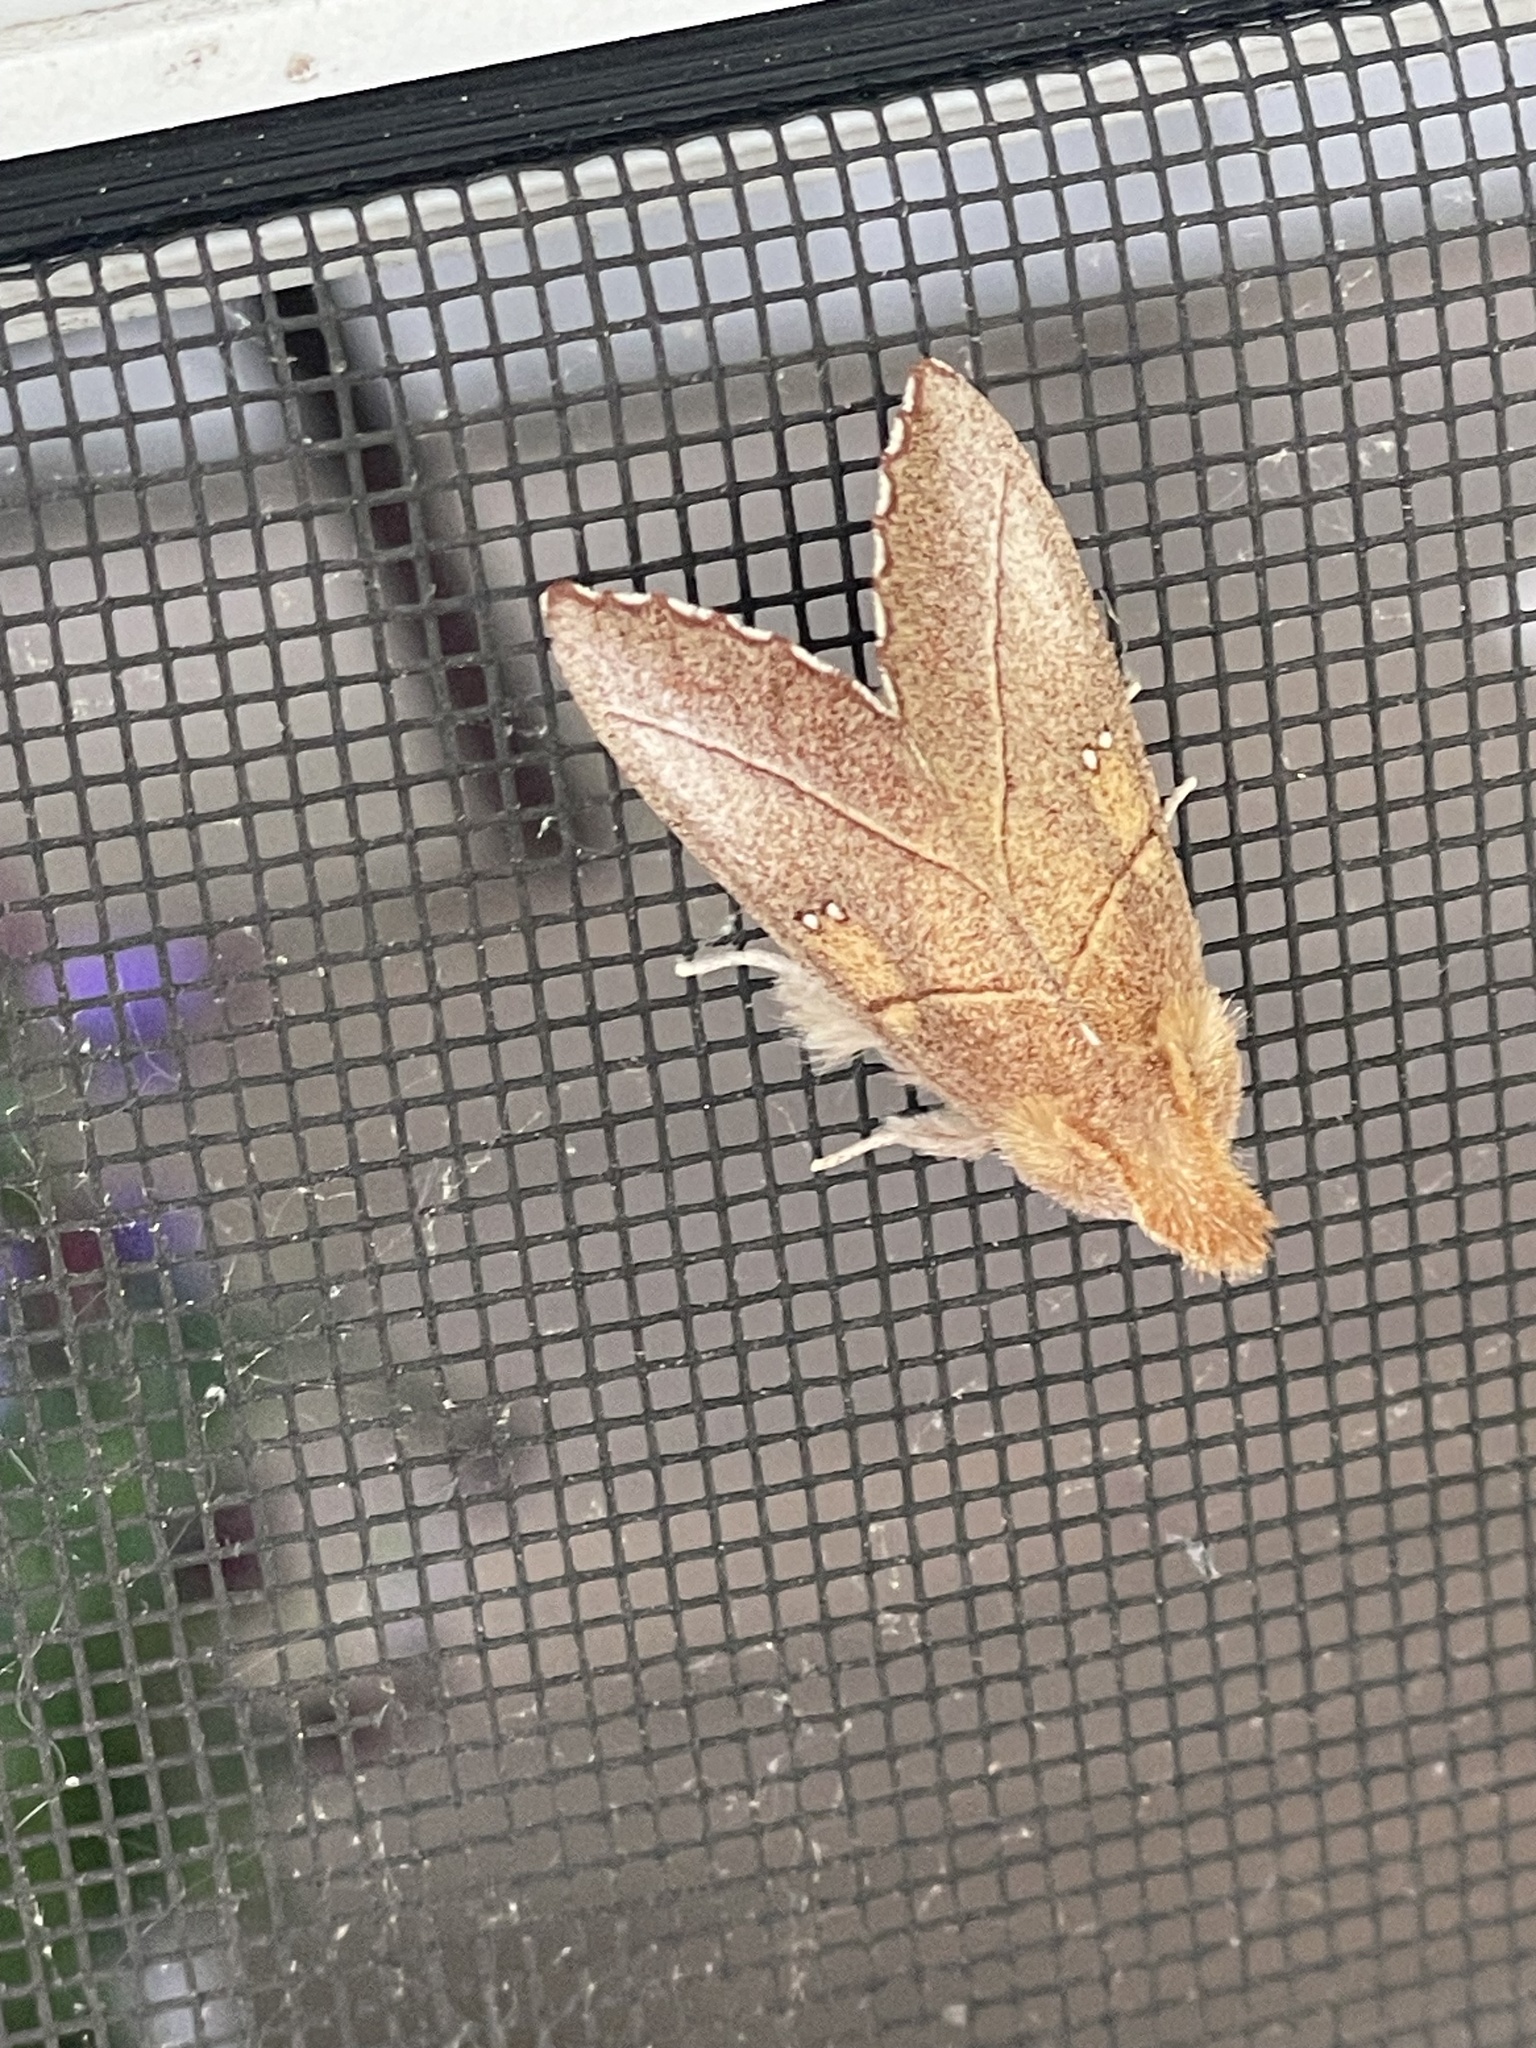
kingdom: Animalia
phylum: Arthropoda
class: Insecta
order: Lepidoptera
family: Notodontidae
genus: Nadata
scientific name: Nadata gibbosa
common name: White-dotted prominent
